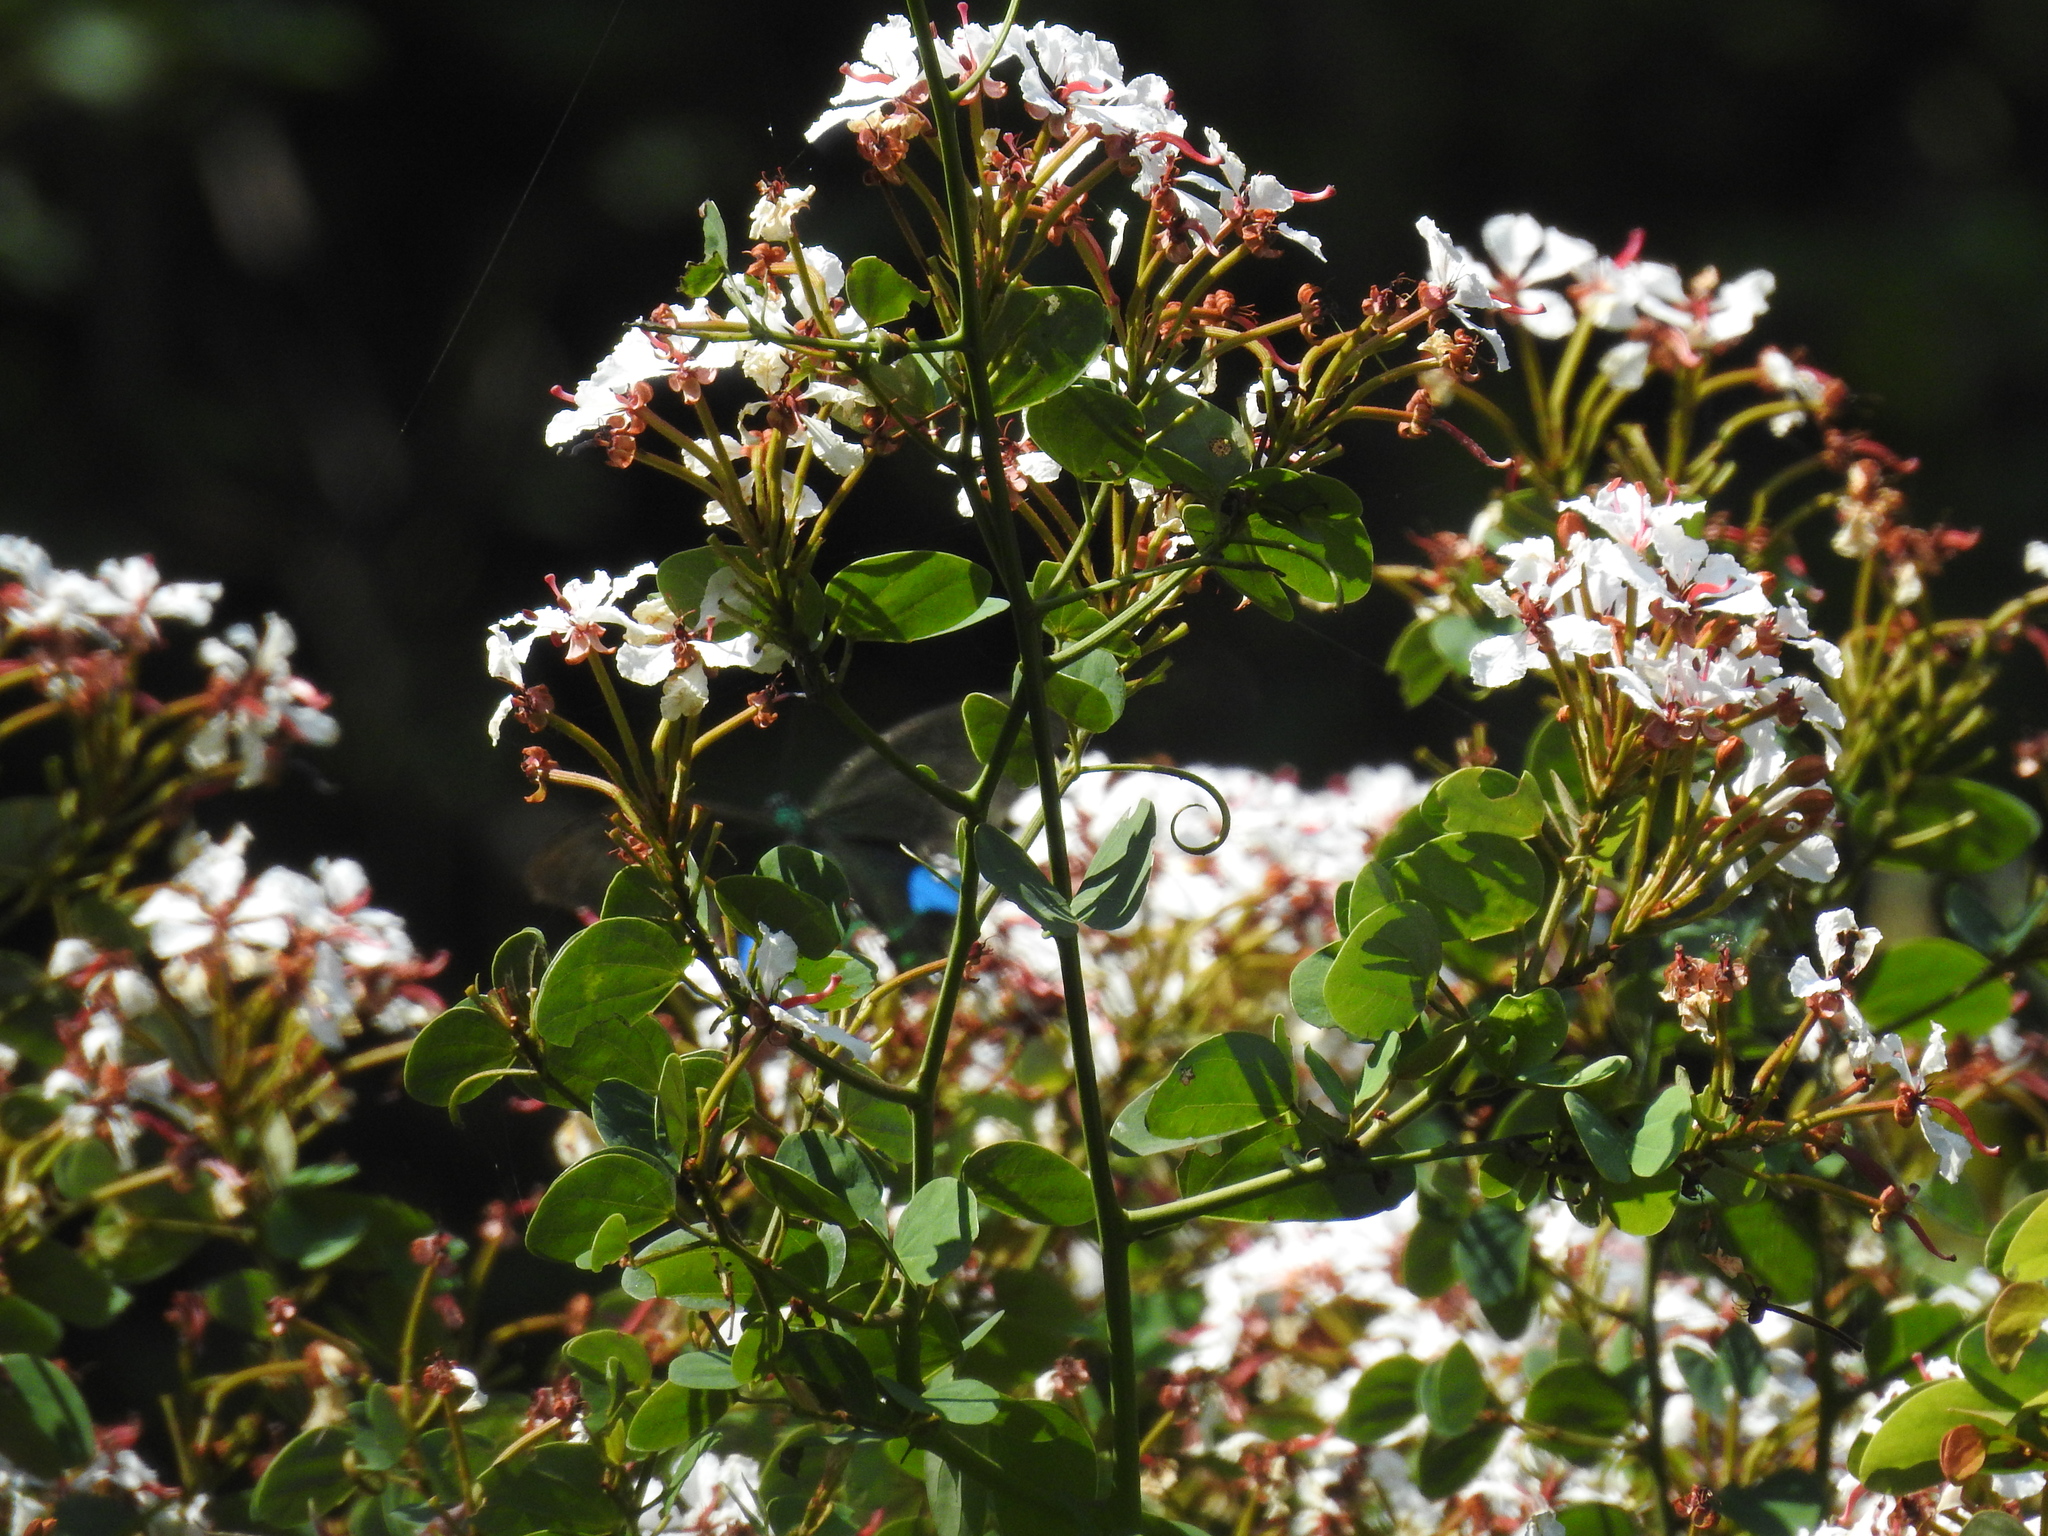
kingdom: Plantae
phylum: Tracheophyta
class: Magnoliopsida
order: Fabales
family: Fabaceae
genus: Cheniella
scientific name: Cheniella corymbosa
